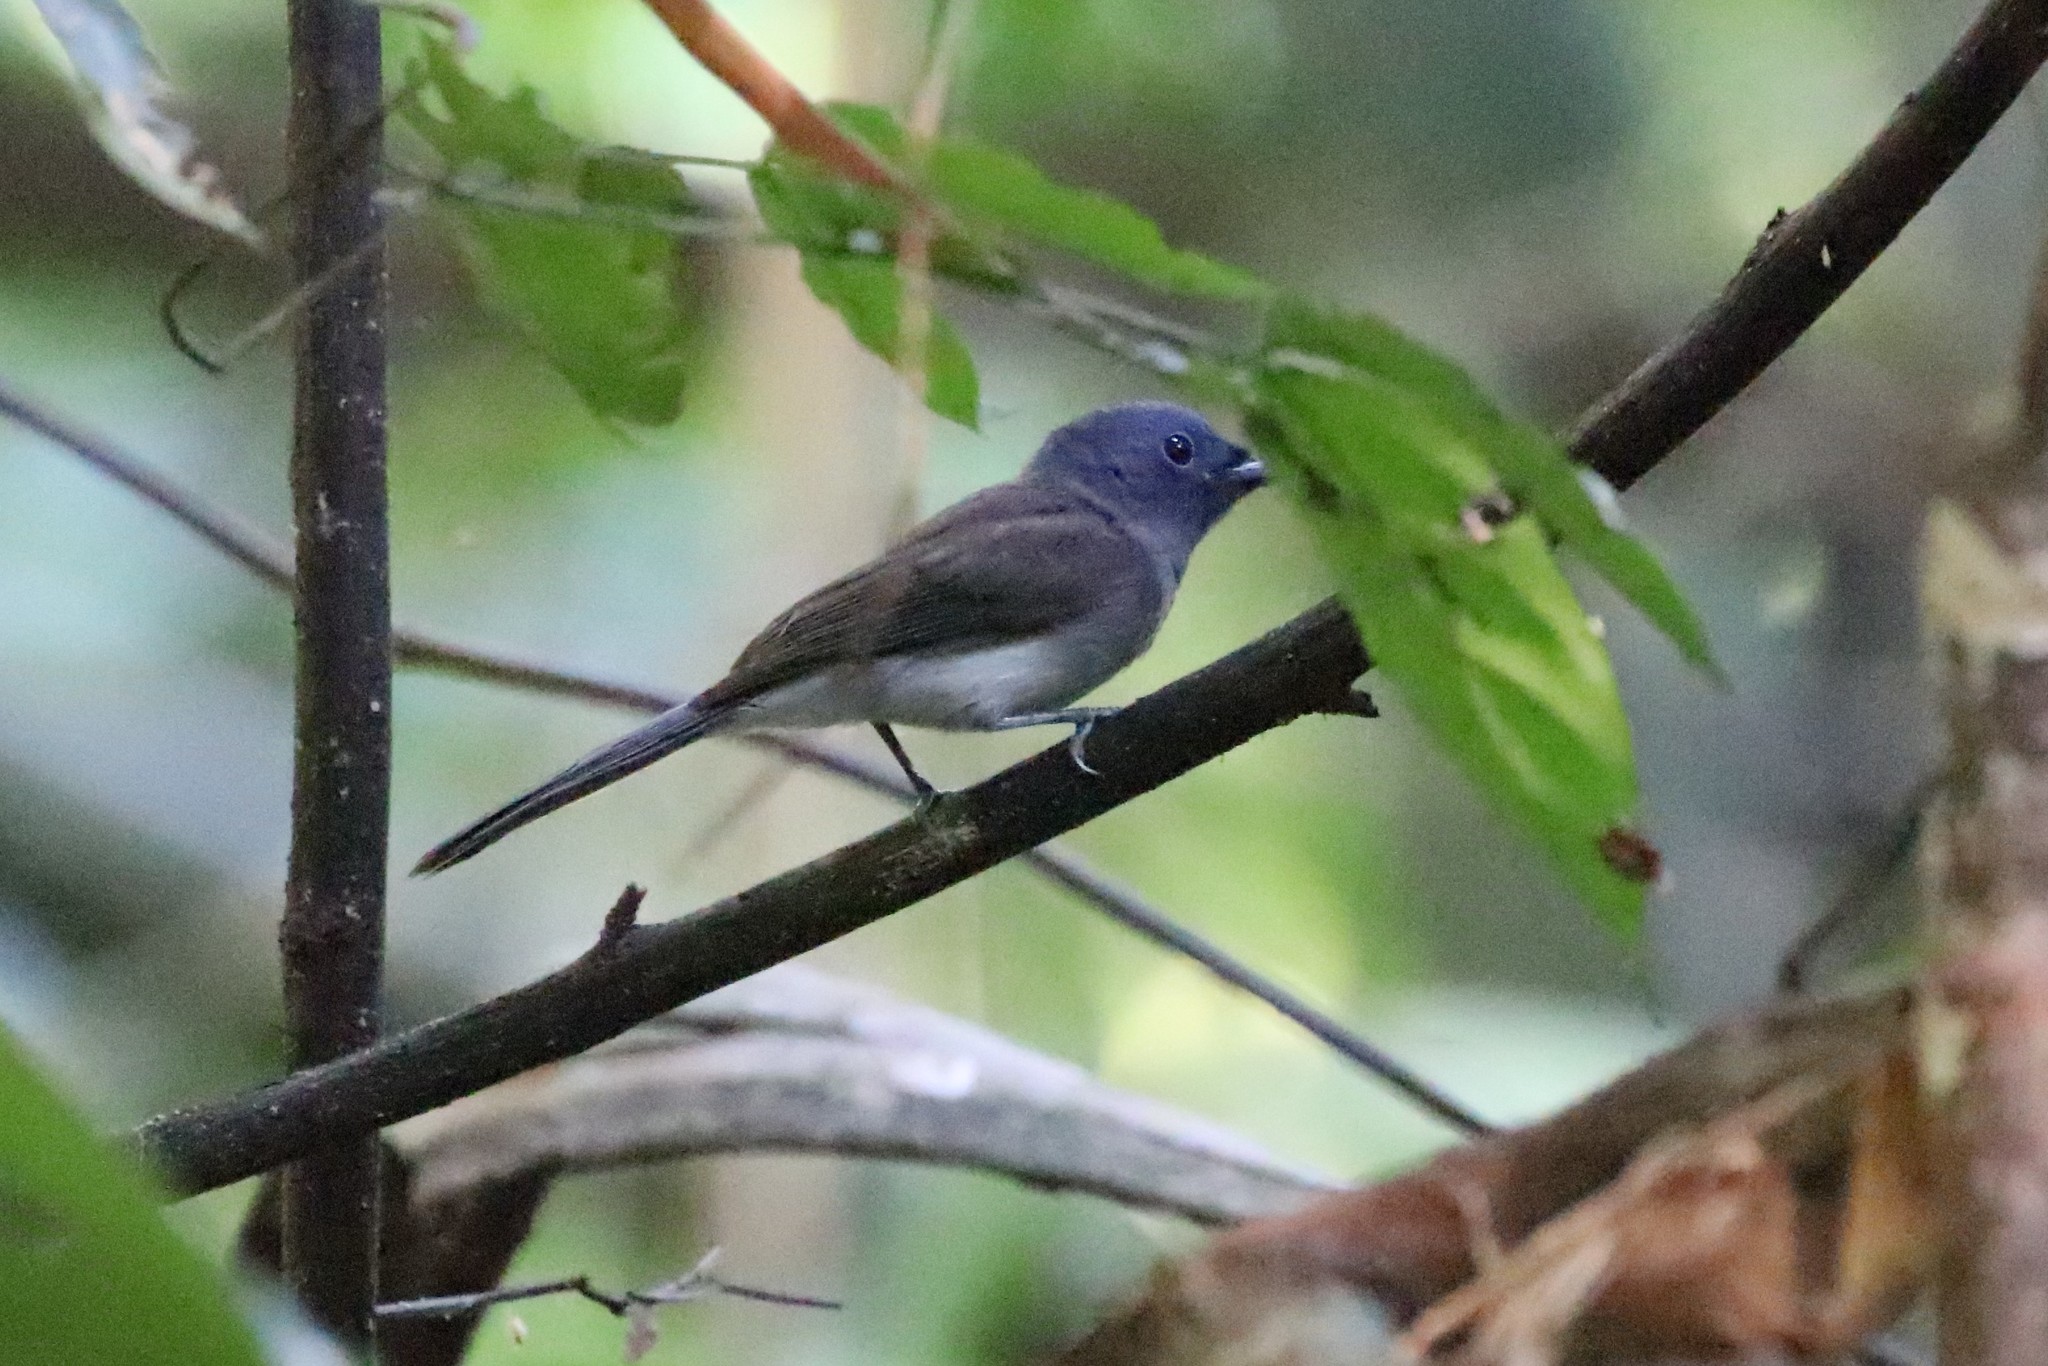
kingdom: Animalia
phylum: Chordata
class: Aves
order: Passeriformes
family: Monarchidae
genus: Hypothymis
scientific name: Hypothymis azurea
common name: Black-naped monarch
